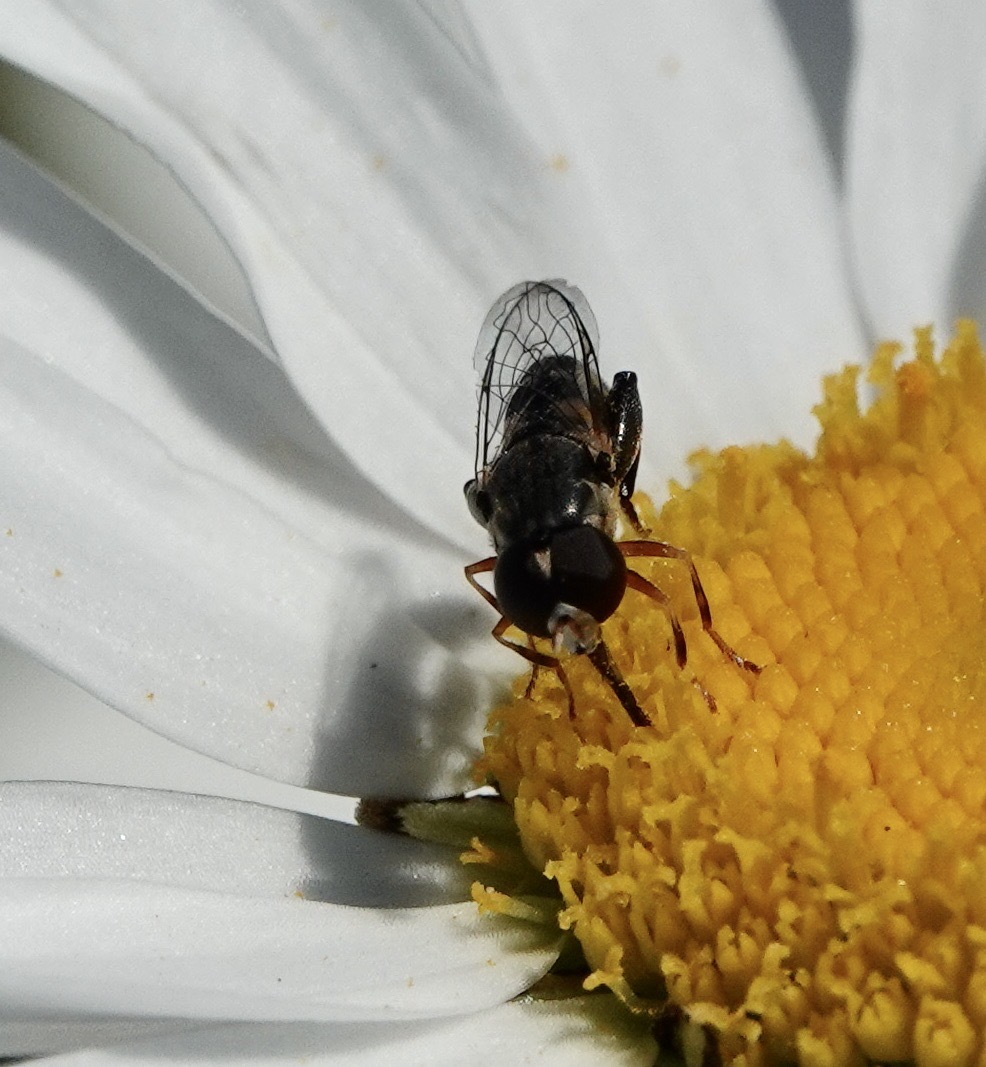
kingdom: Animalia
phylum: Arthropoda
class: Insecta
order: Diptera
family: Syrphidae
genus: Syritta
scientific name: Syritta pipiens
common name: Hover fly
